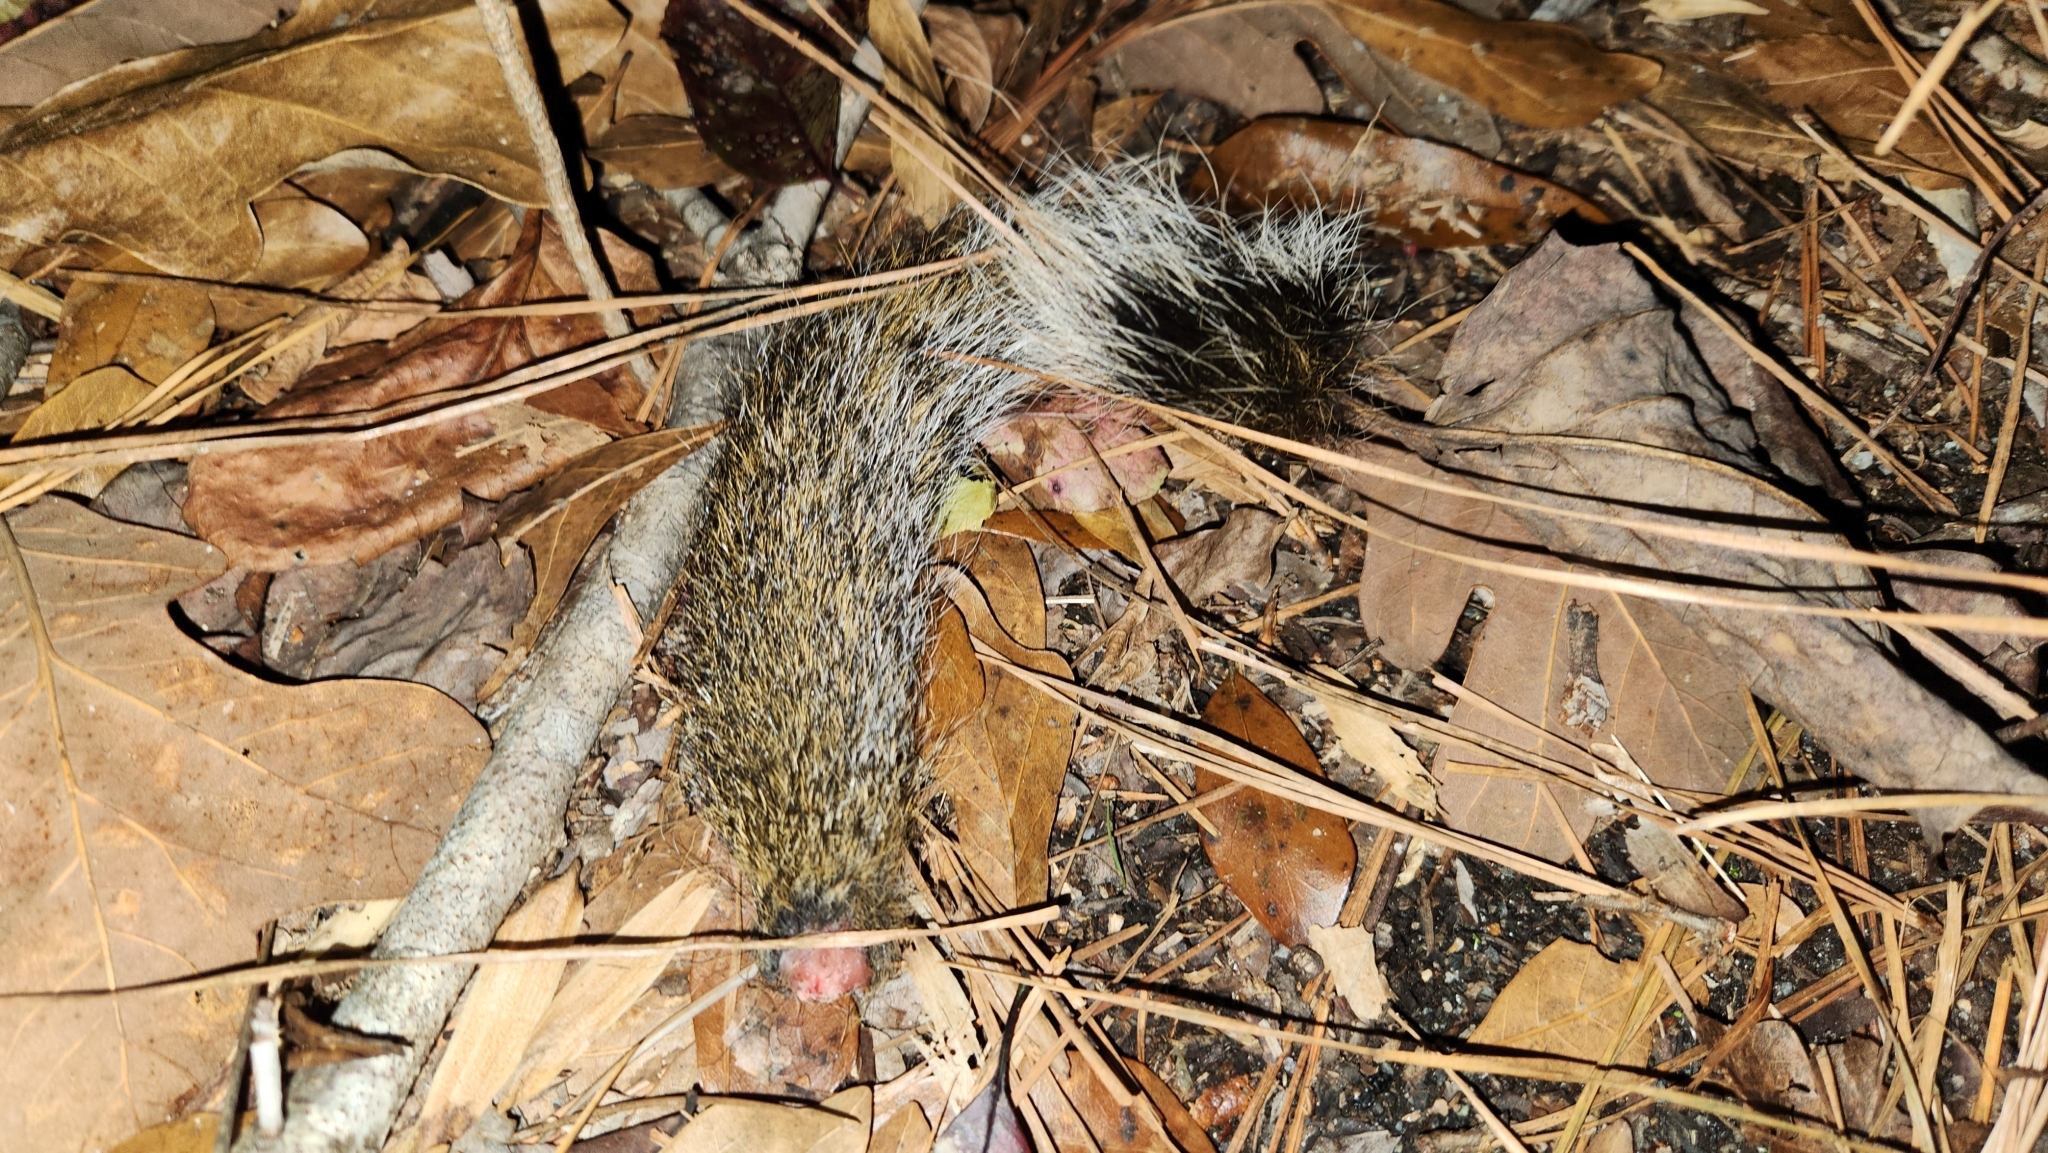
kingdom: Animalia
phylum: Chordata
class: Mammalia
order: Rodentia
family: Sciuridae
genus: Sciurus
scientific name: Sciurus carolinensis
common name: Eastern gray squirrel
